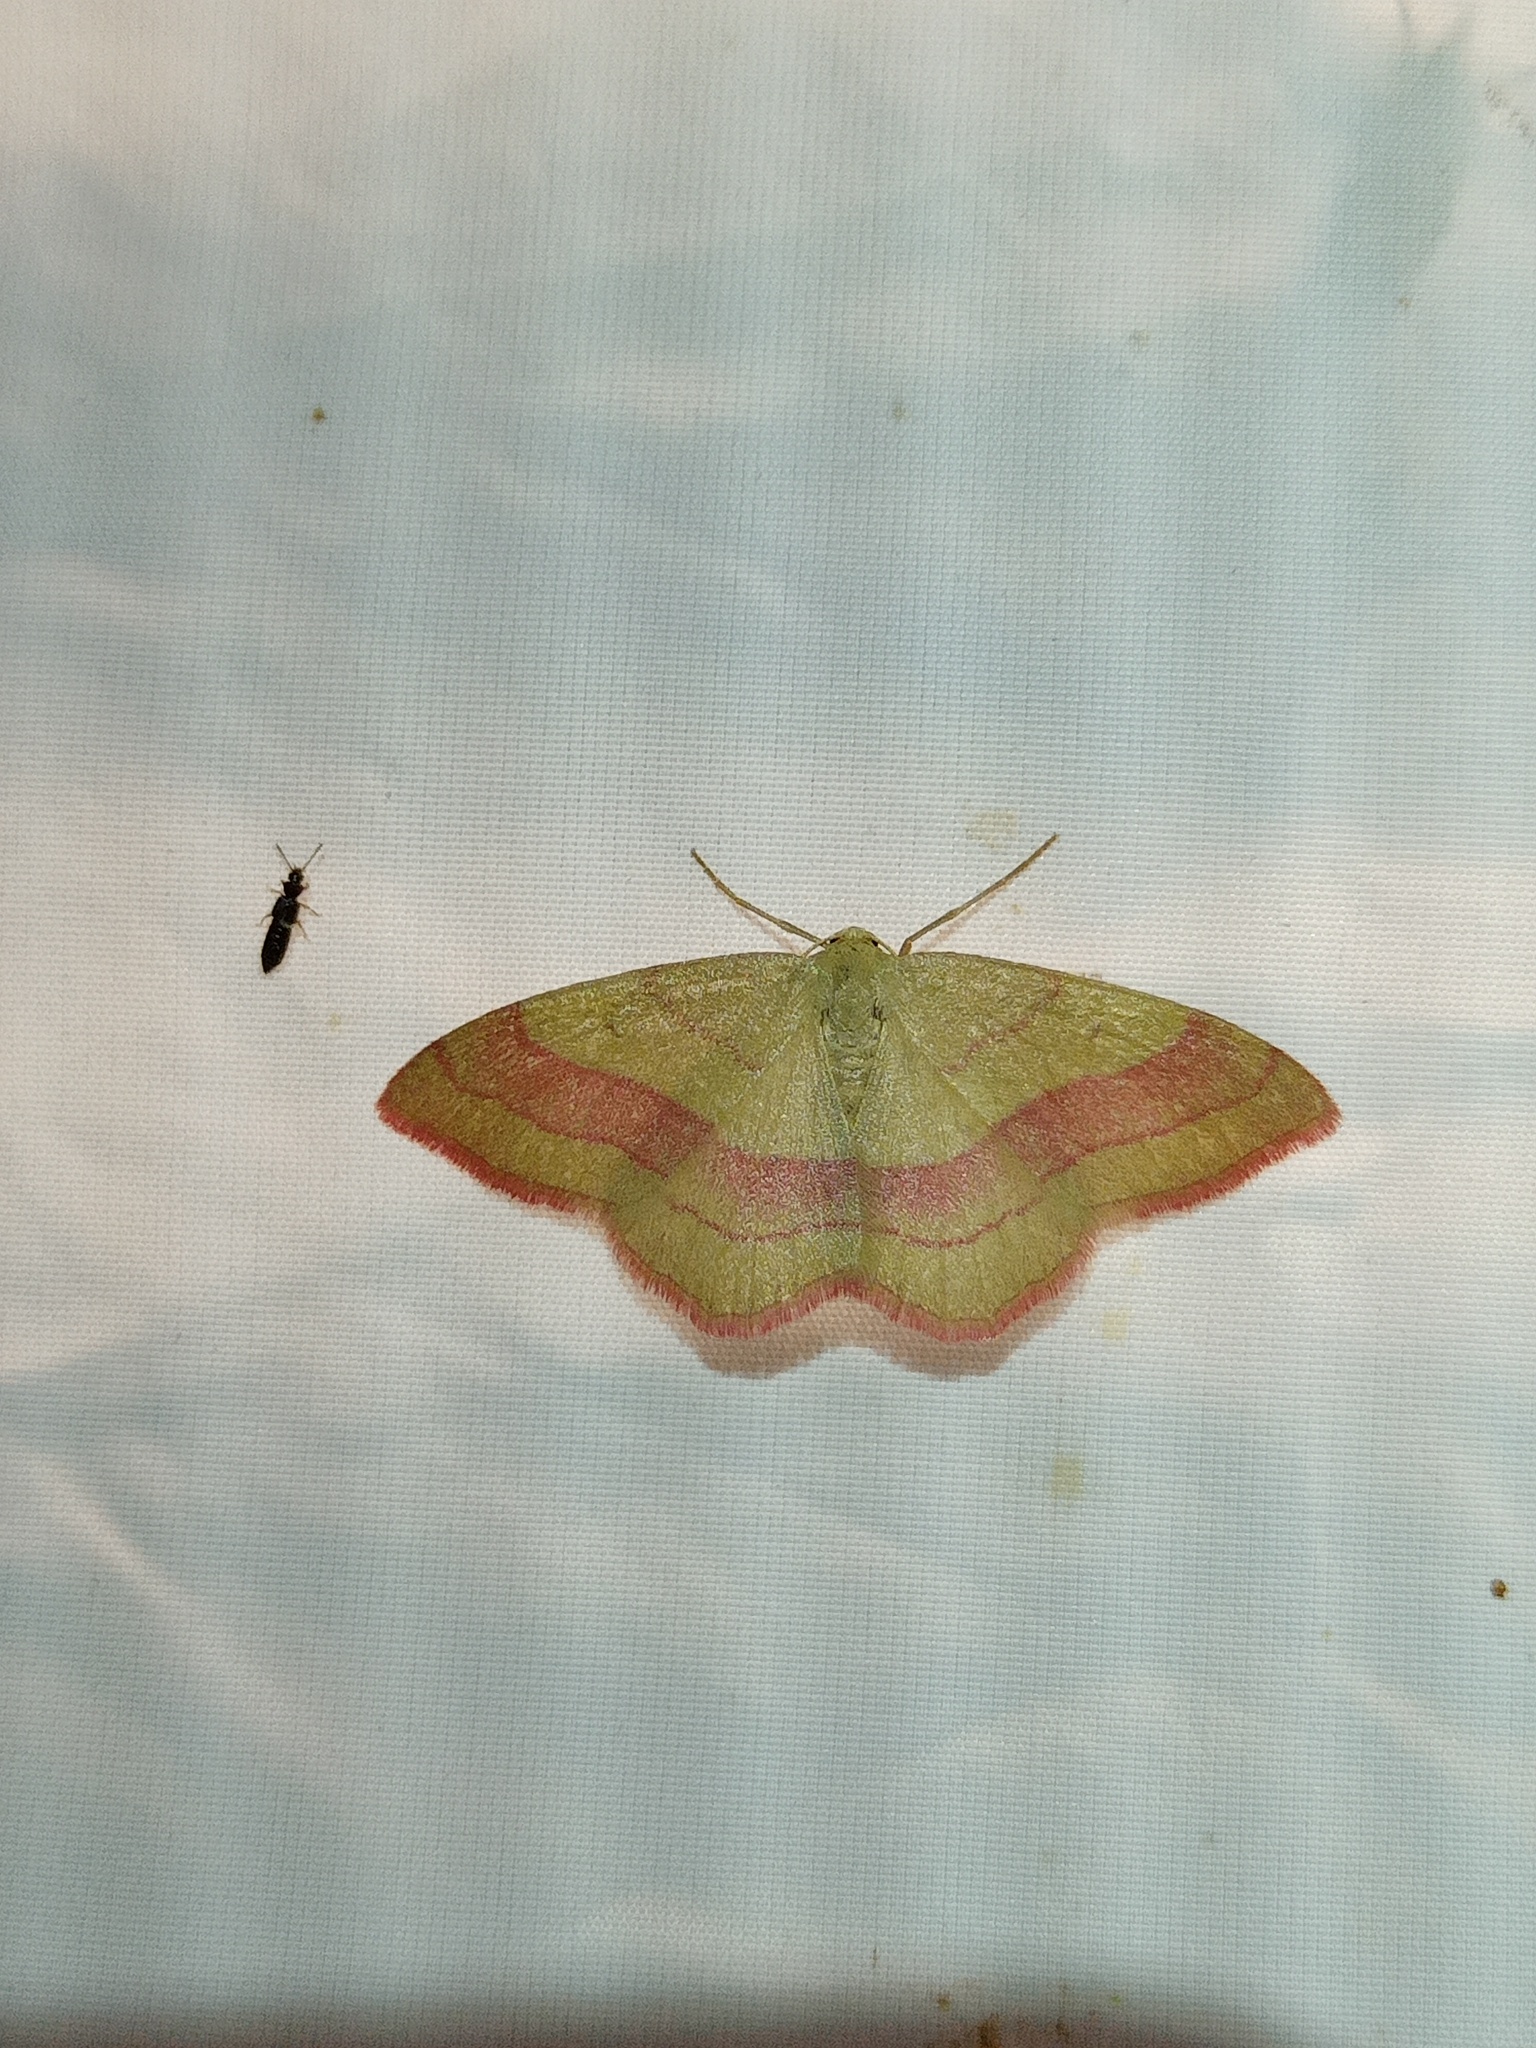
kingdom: Animalia
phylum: Arthropoda
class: Insecta
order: Lepidoptera
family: Geometridae
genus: Rhodostrophia
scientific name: Rhodostrophia vibicaria
